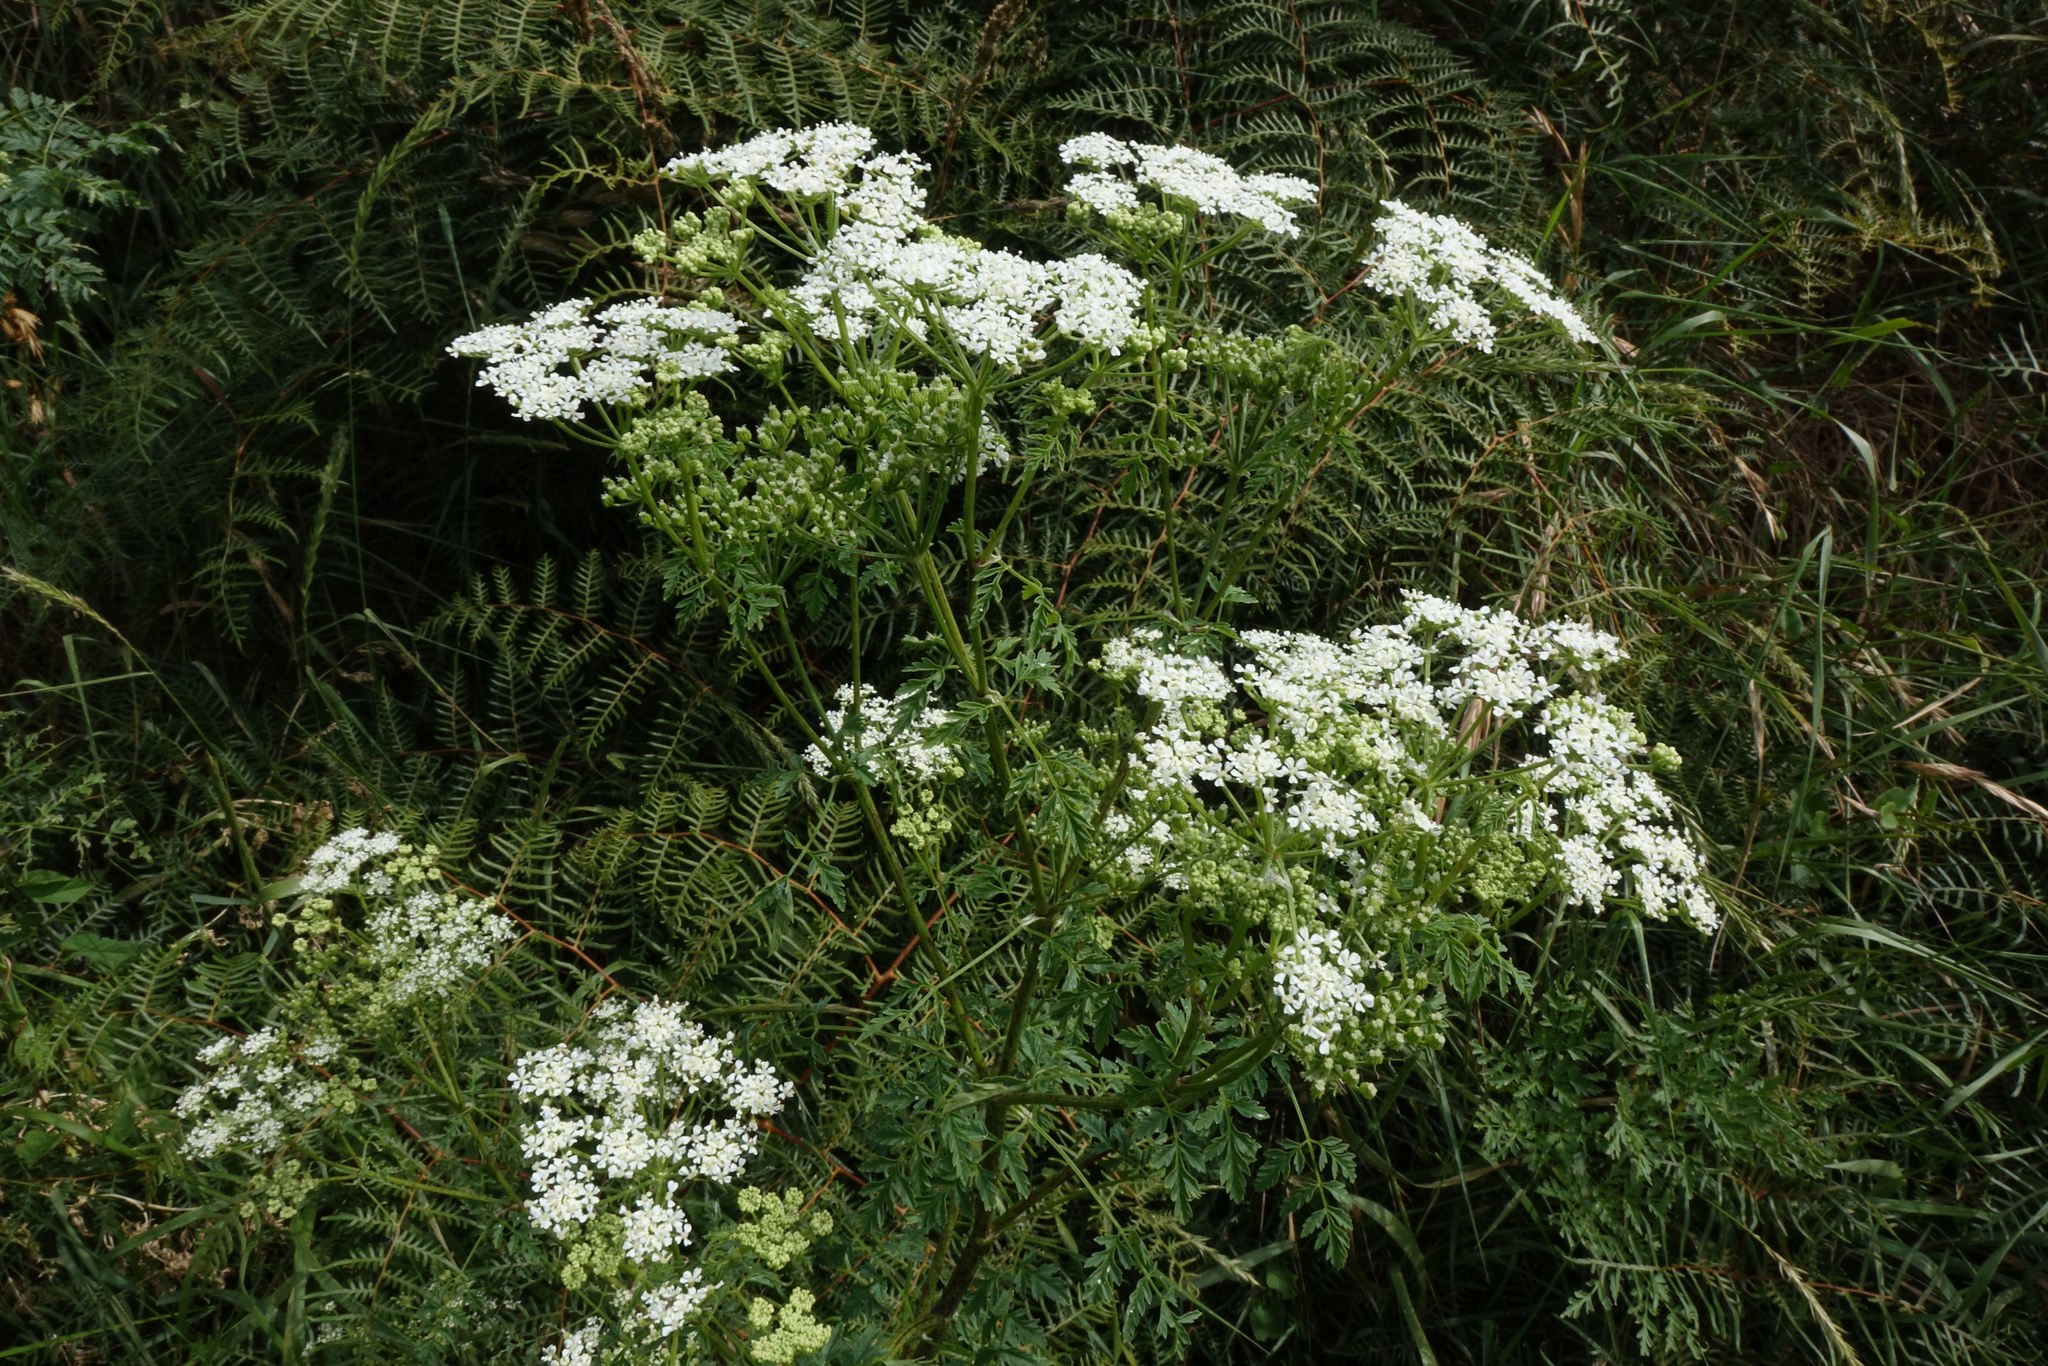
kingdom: Plantae
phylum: Tracheophyta
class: Magnoliopsida
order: Apiales
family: Apiaceae
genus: Conium
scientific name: Conium maculatum
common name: Hemlock
